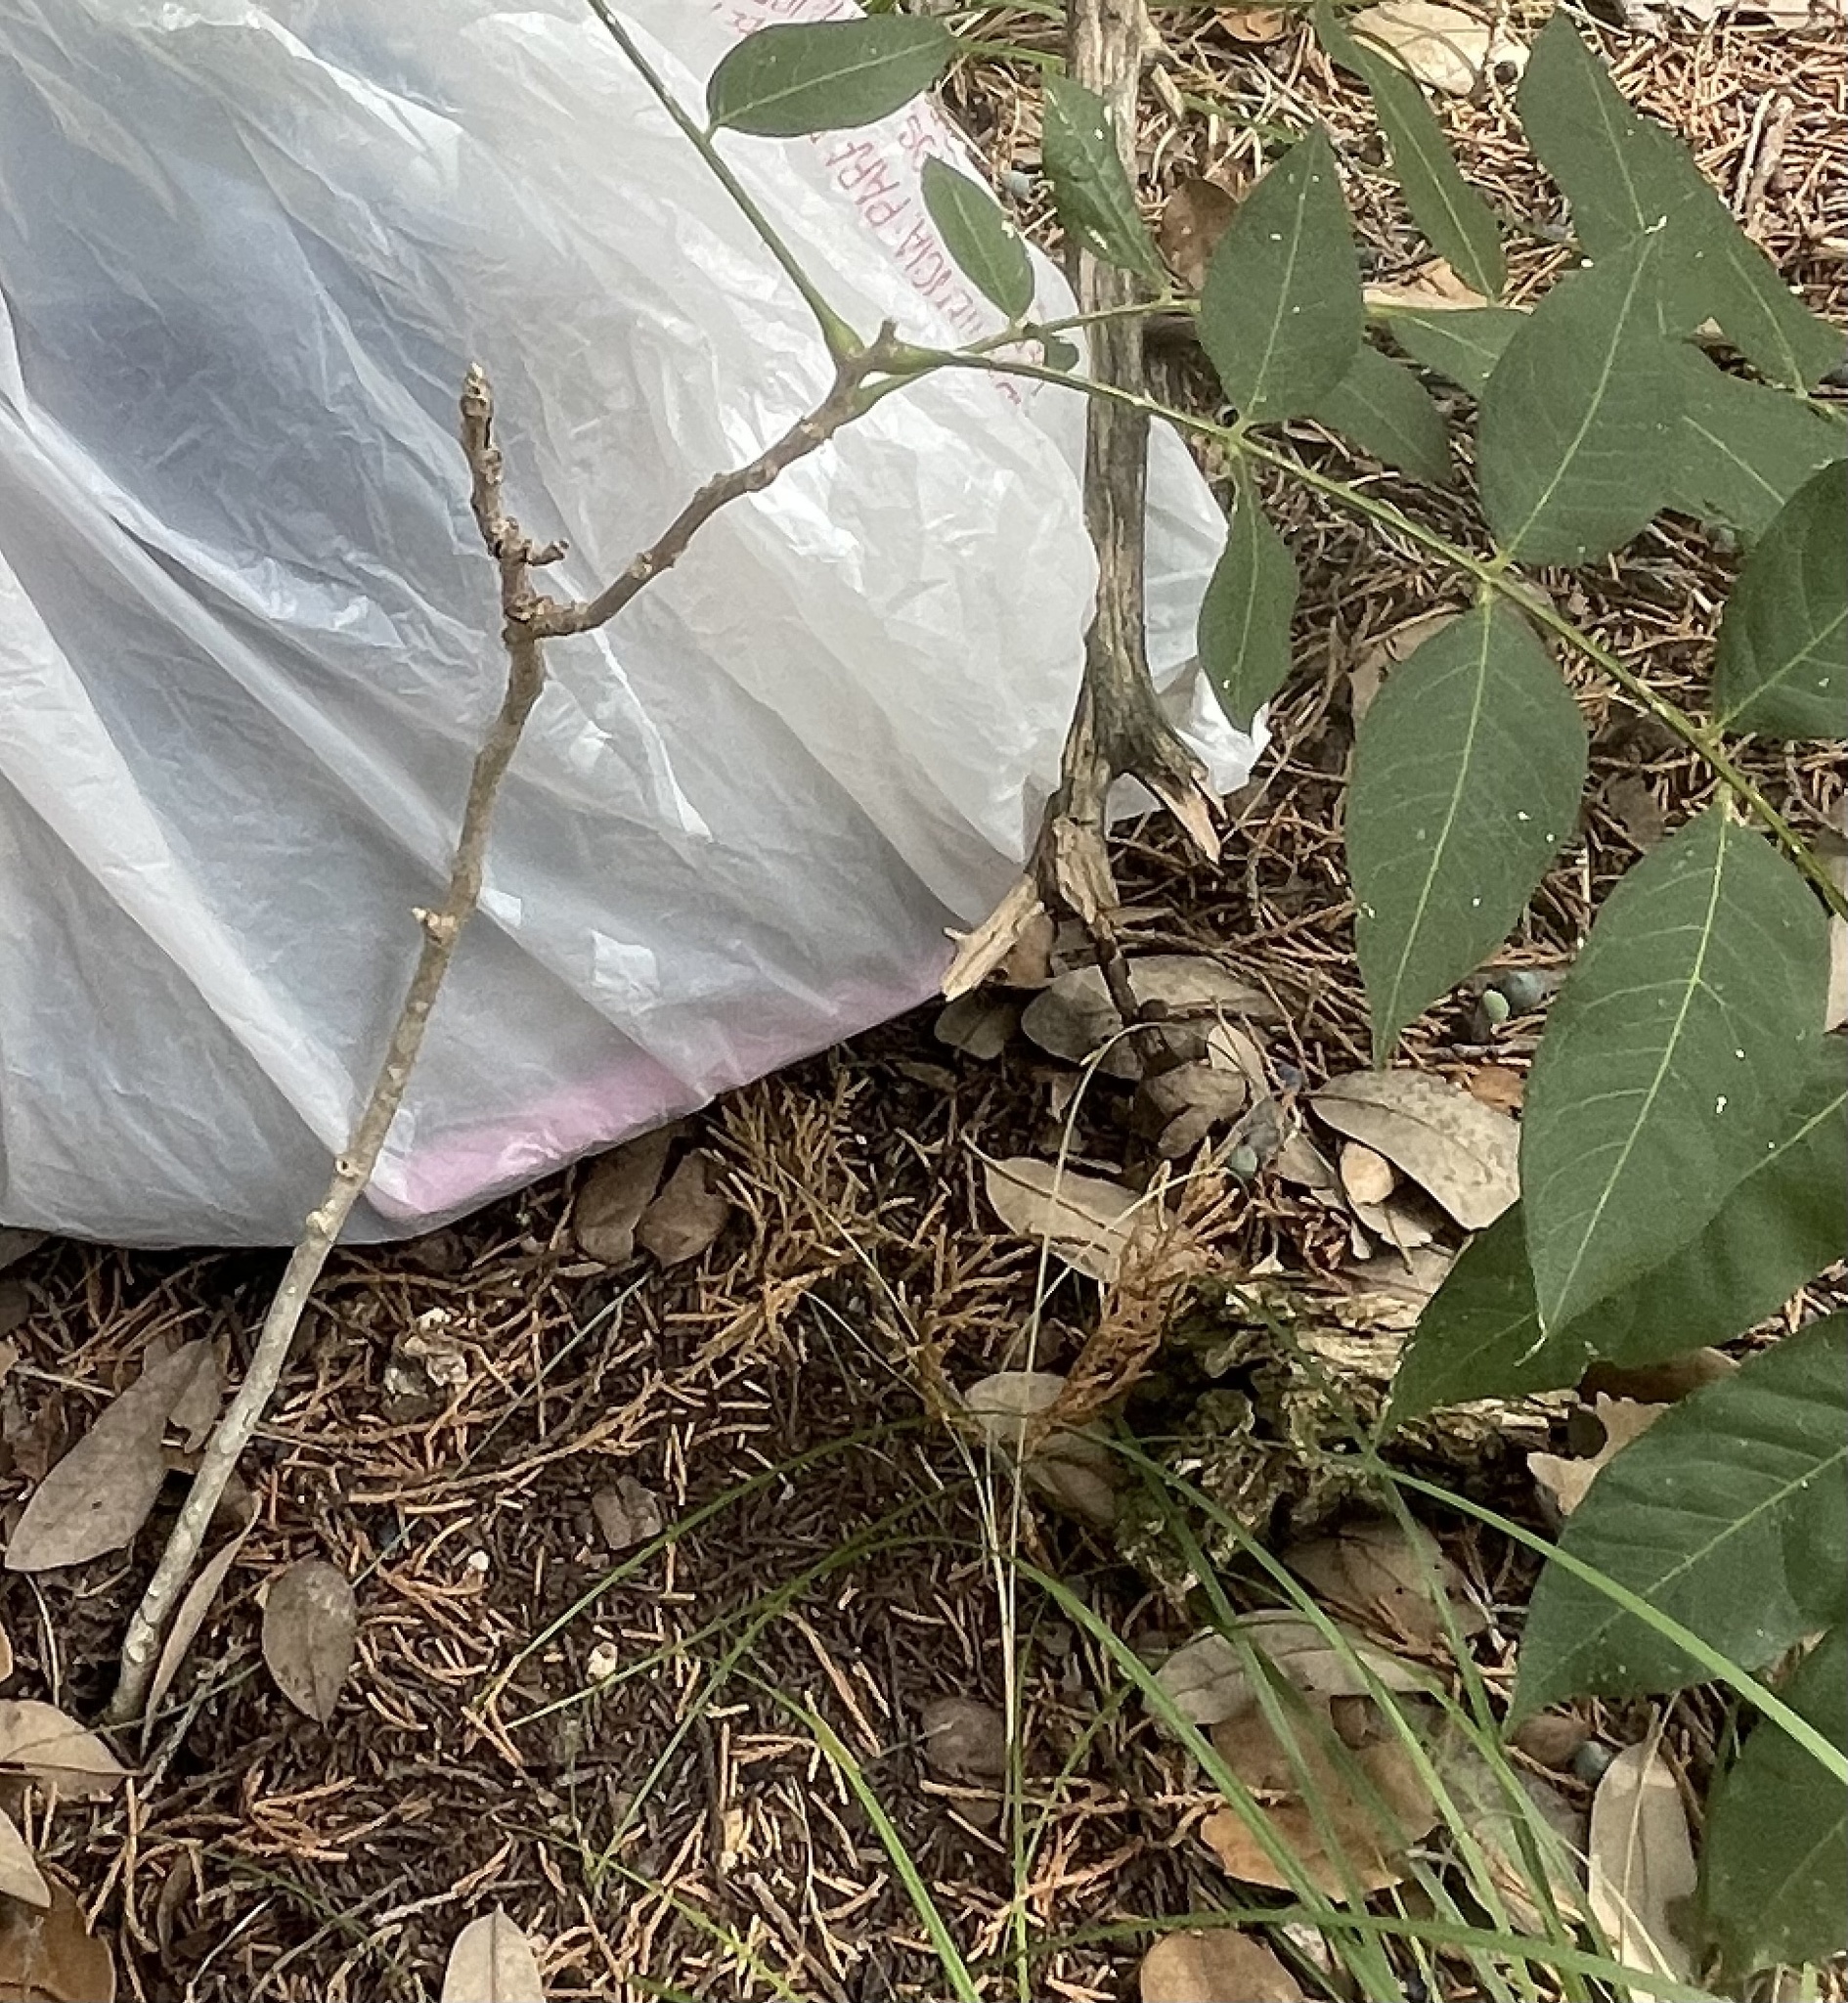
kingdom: Plantae
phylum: Tracheophyta
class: Magnoliopsida
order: Sapindales
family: Sapindaceae
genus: Sapindus
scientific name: Sapindus drummondii
